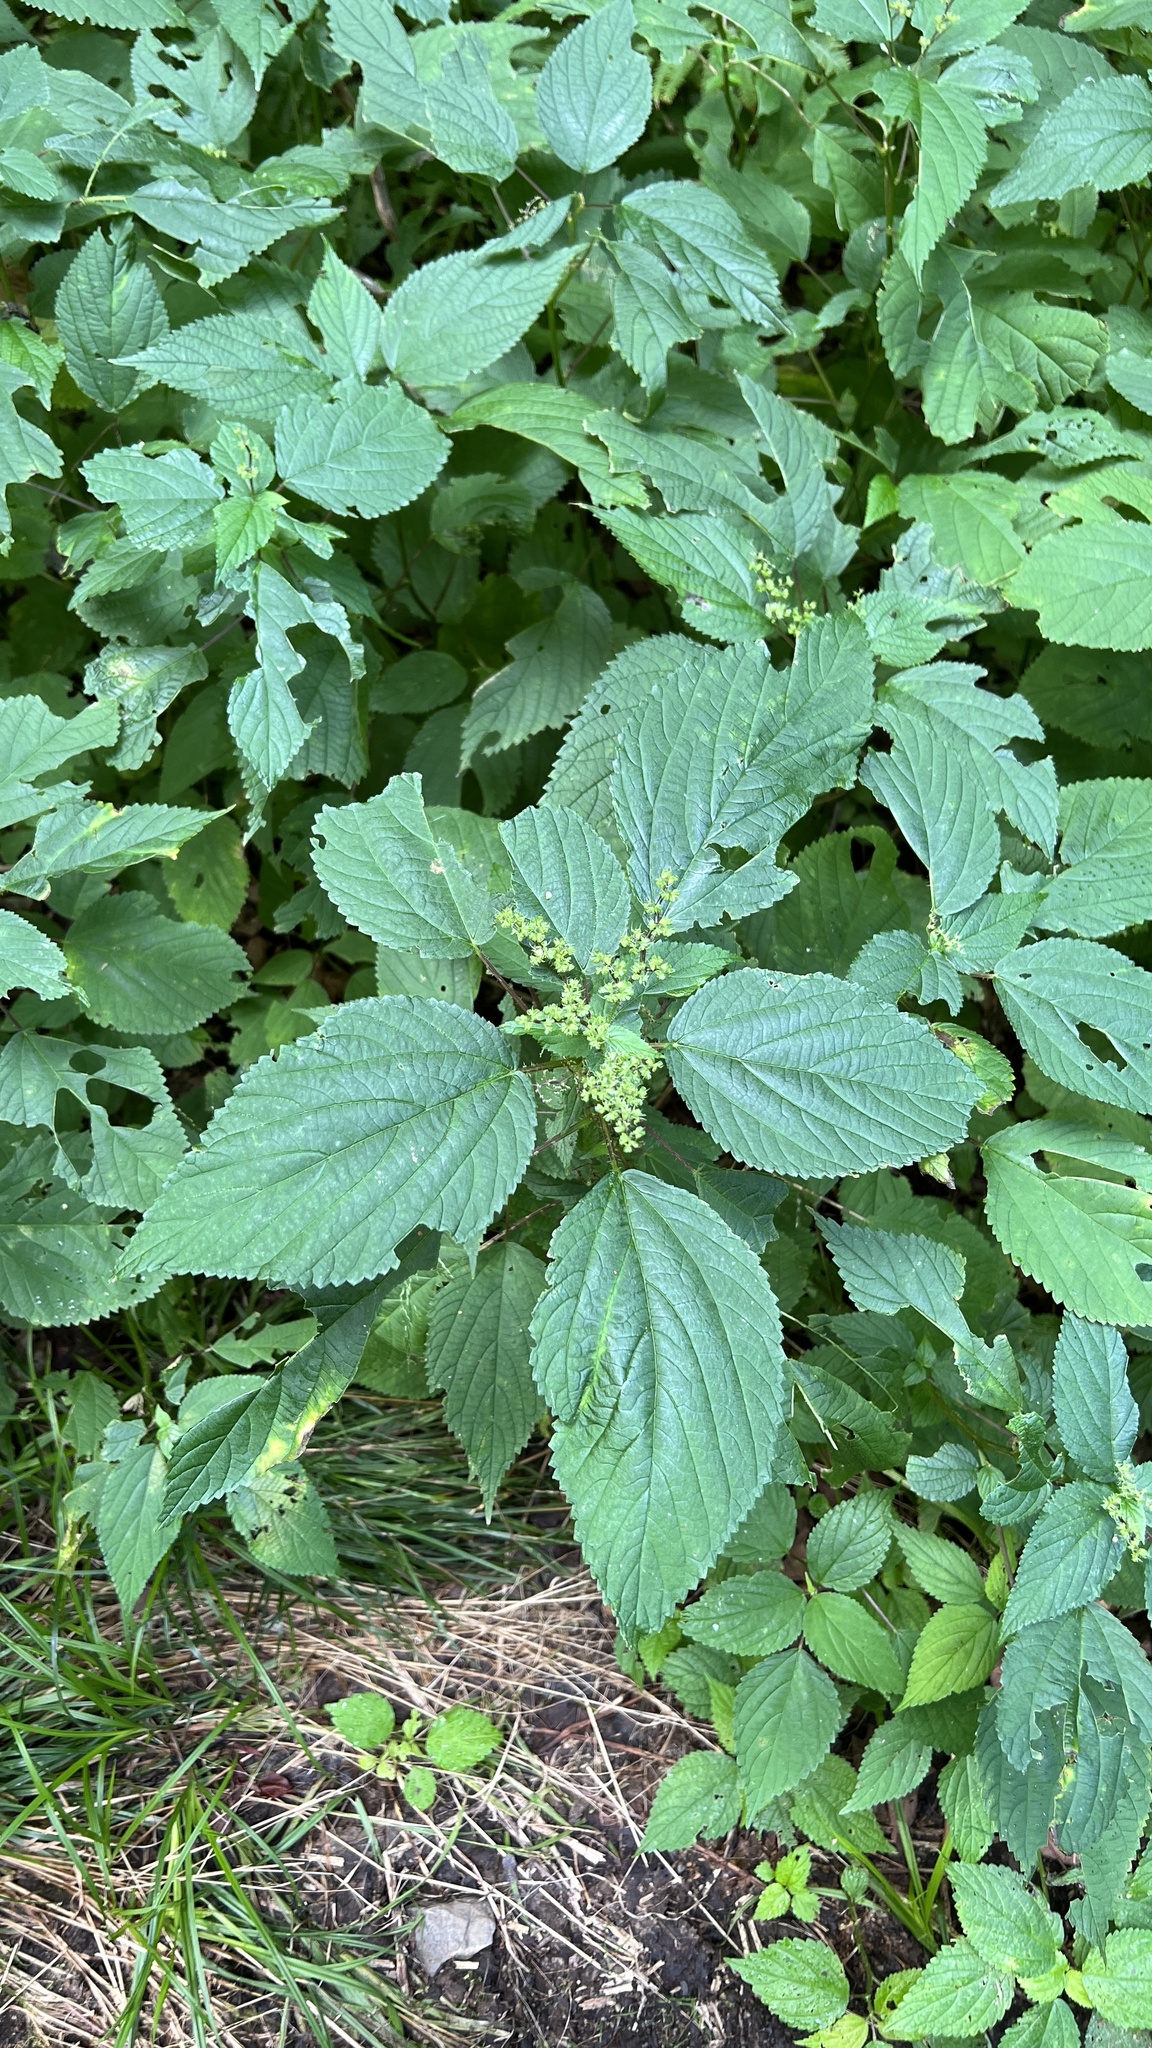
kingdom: Plantae
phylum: Tracheophyta
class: Magnoliopsida
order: Rosales
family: Urticaceae
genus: Laportea
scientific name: Laportea canadensis
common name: Canada nettle
